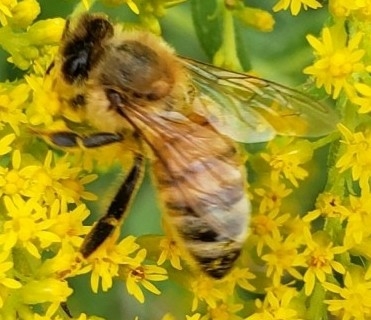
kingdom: Animalia
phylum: Arthropoda
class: Insecta
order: Hymenoptera
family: Apidae
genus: Apis
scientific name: Apis mellifera
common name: Honey bee
